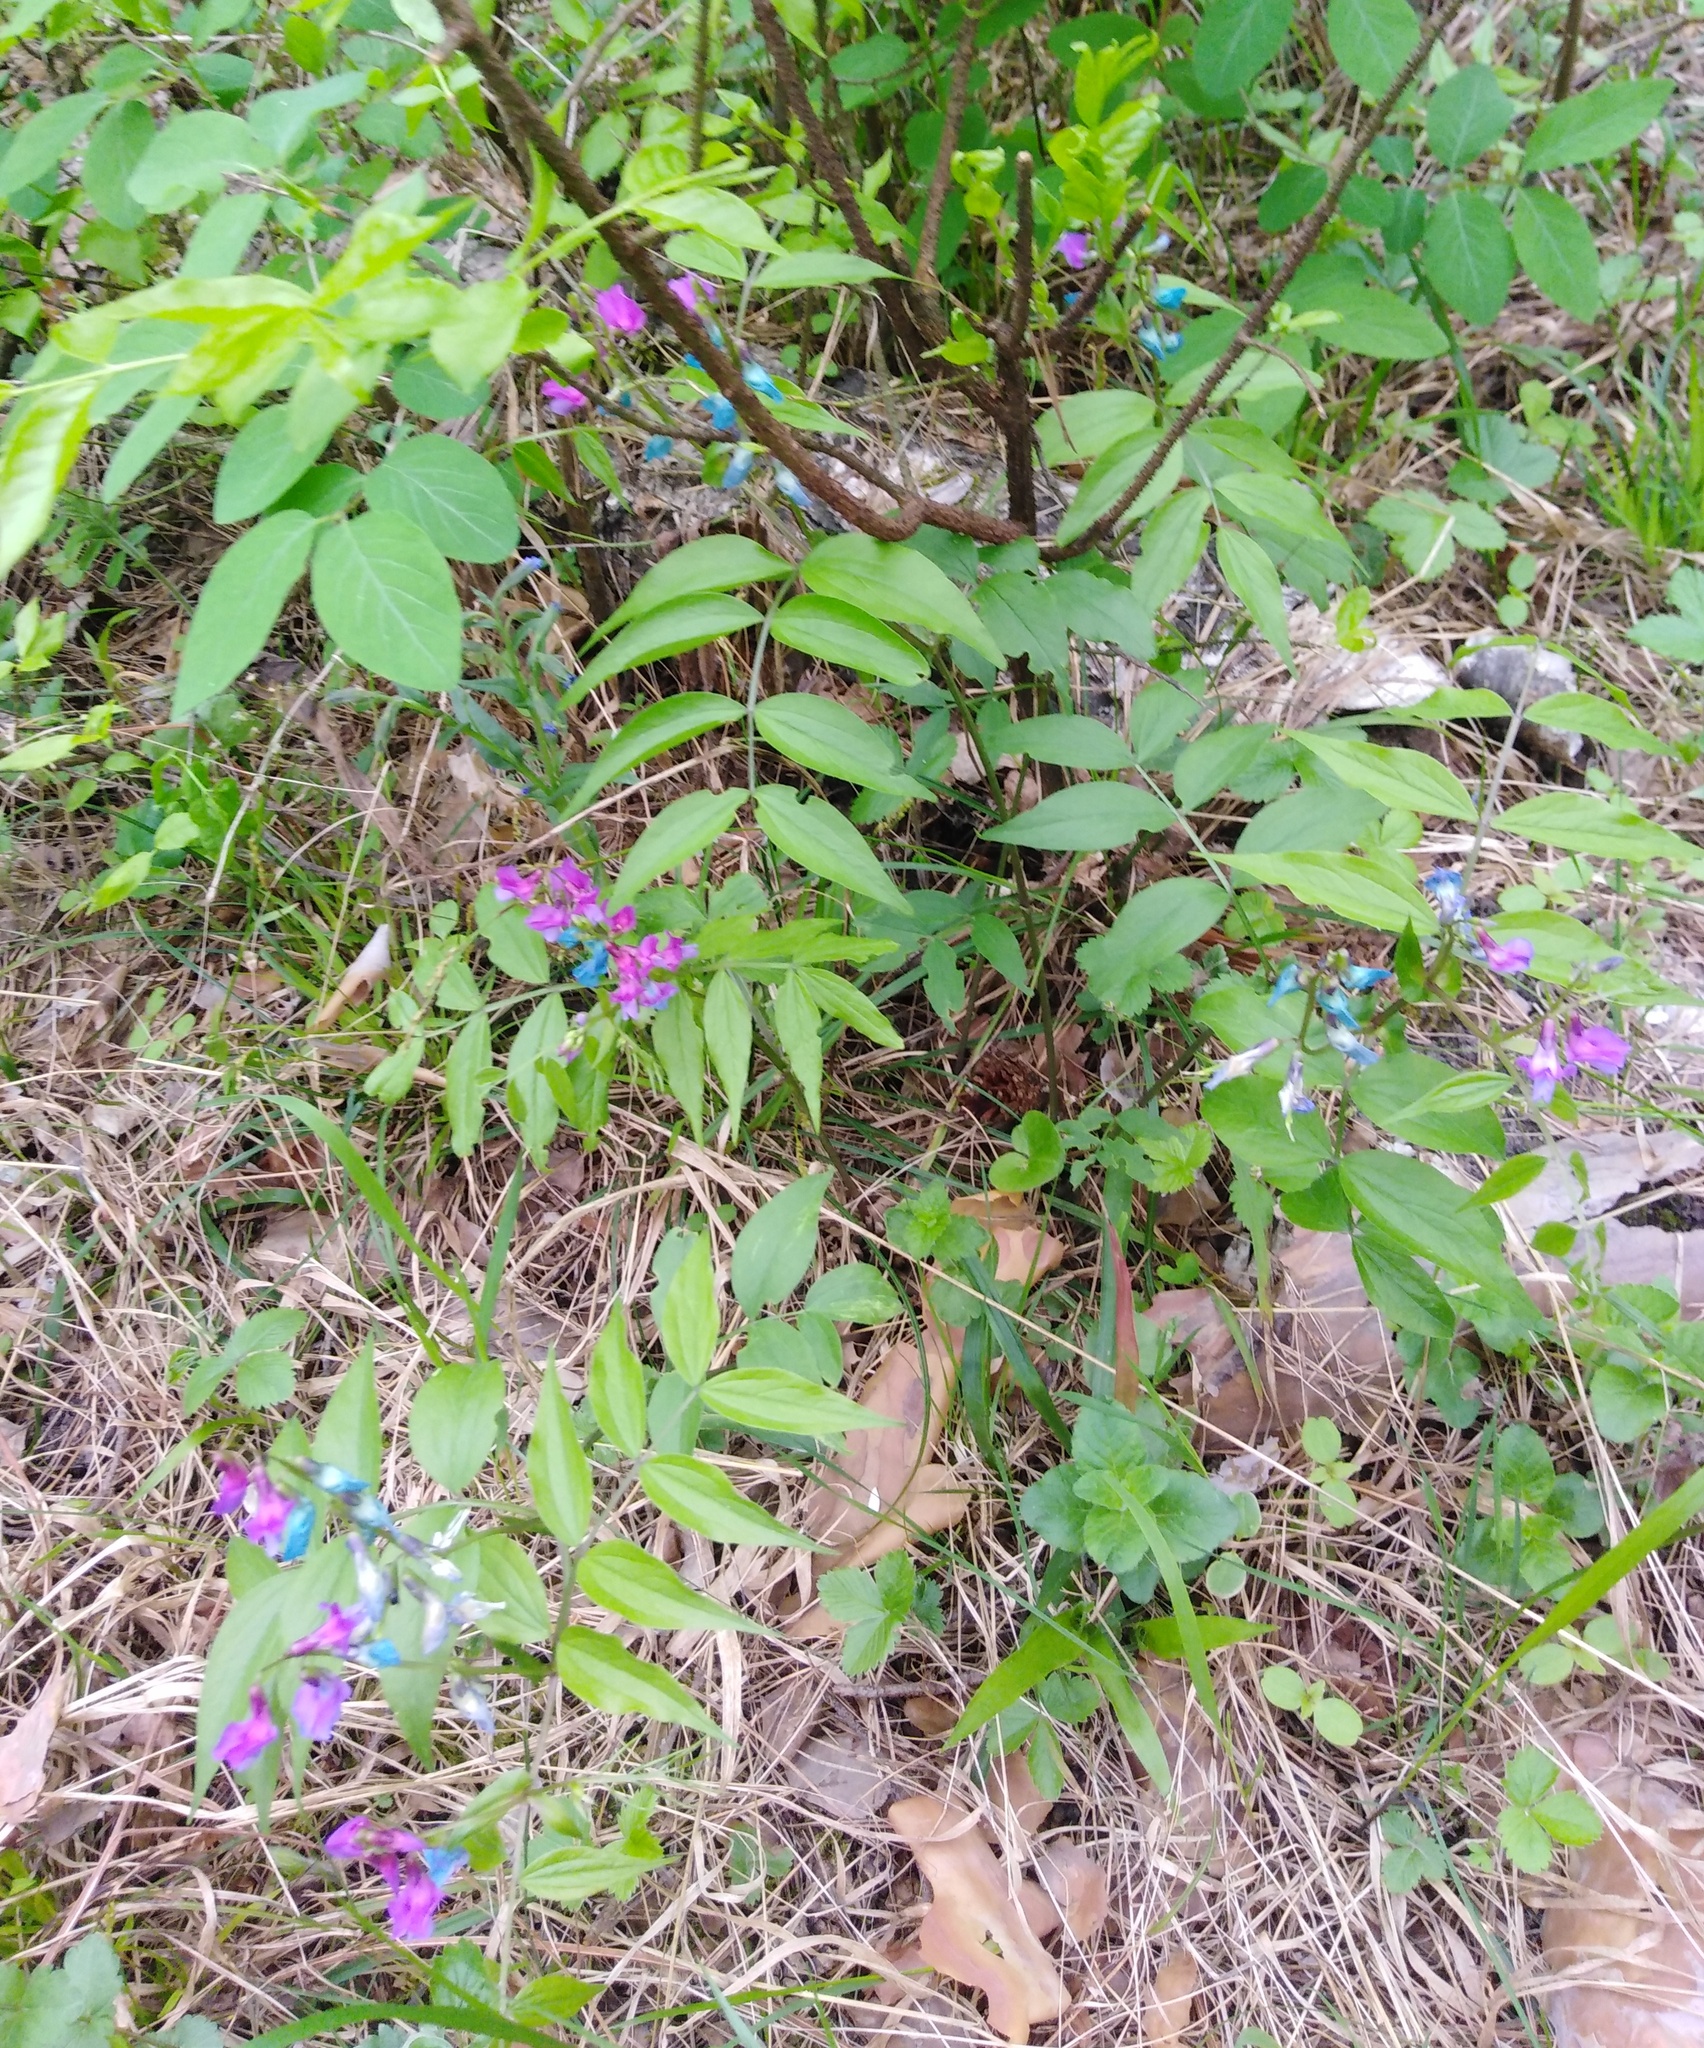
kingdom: Plantae
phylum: Tracheophyta
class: Magnoliopsida
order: Fabales
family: Fabaceae
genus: Lathyrus
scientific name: Lathyrus vernus
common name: Spring pea
